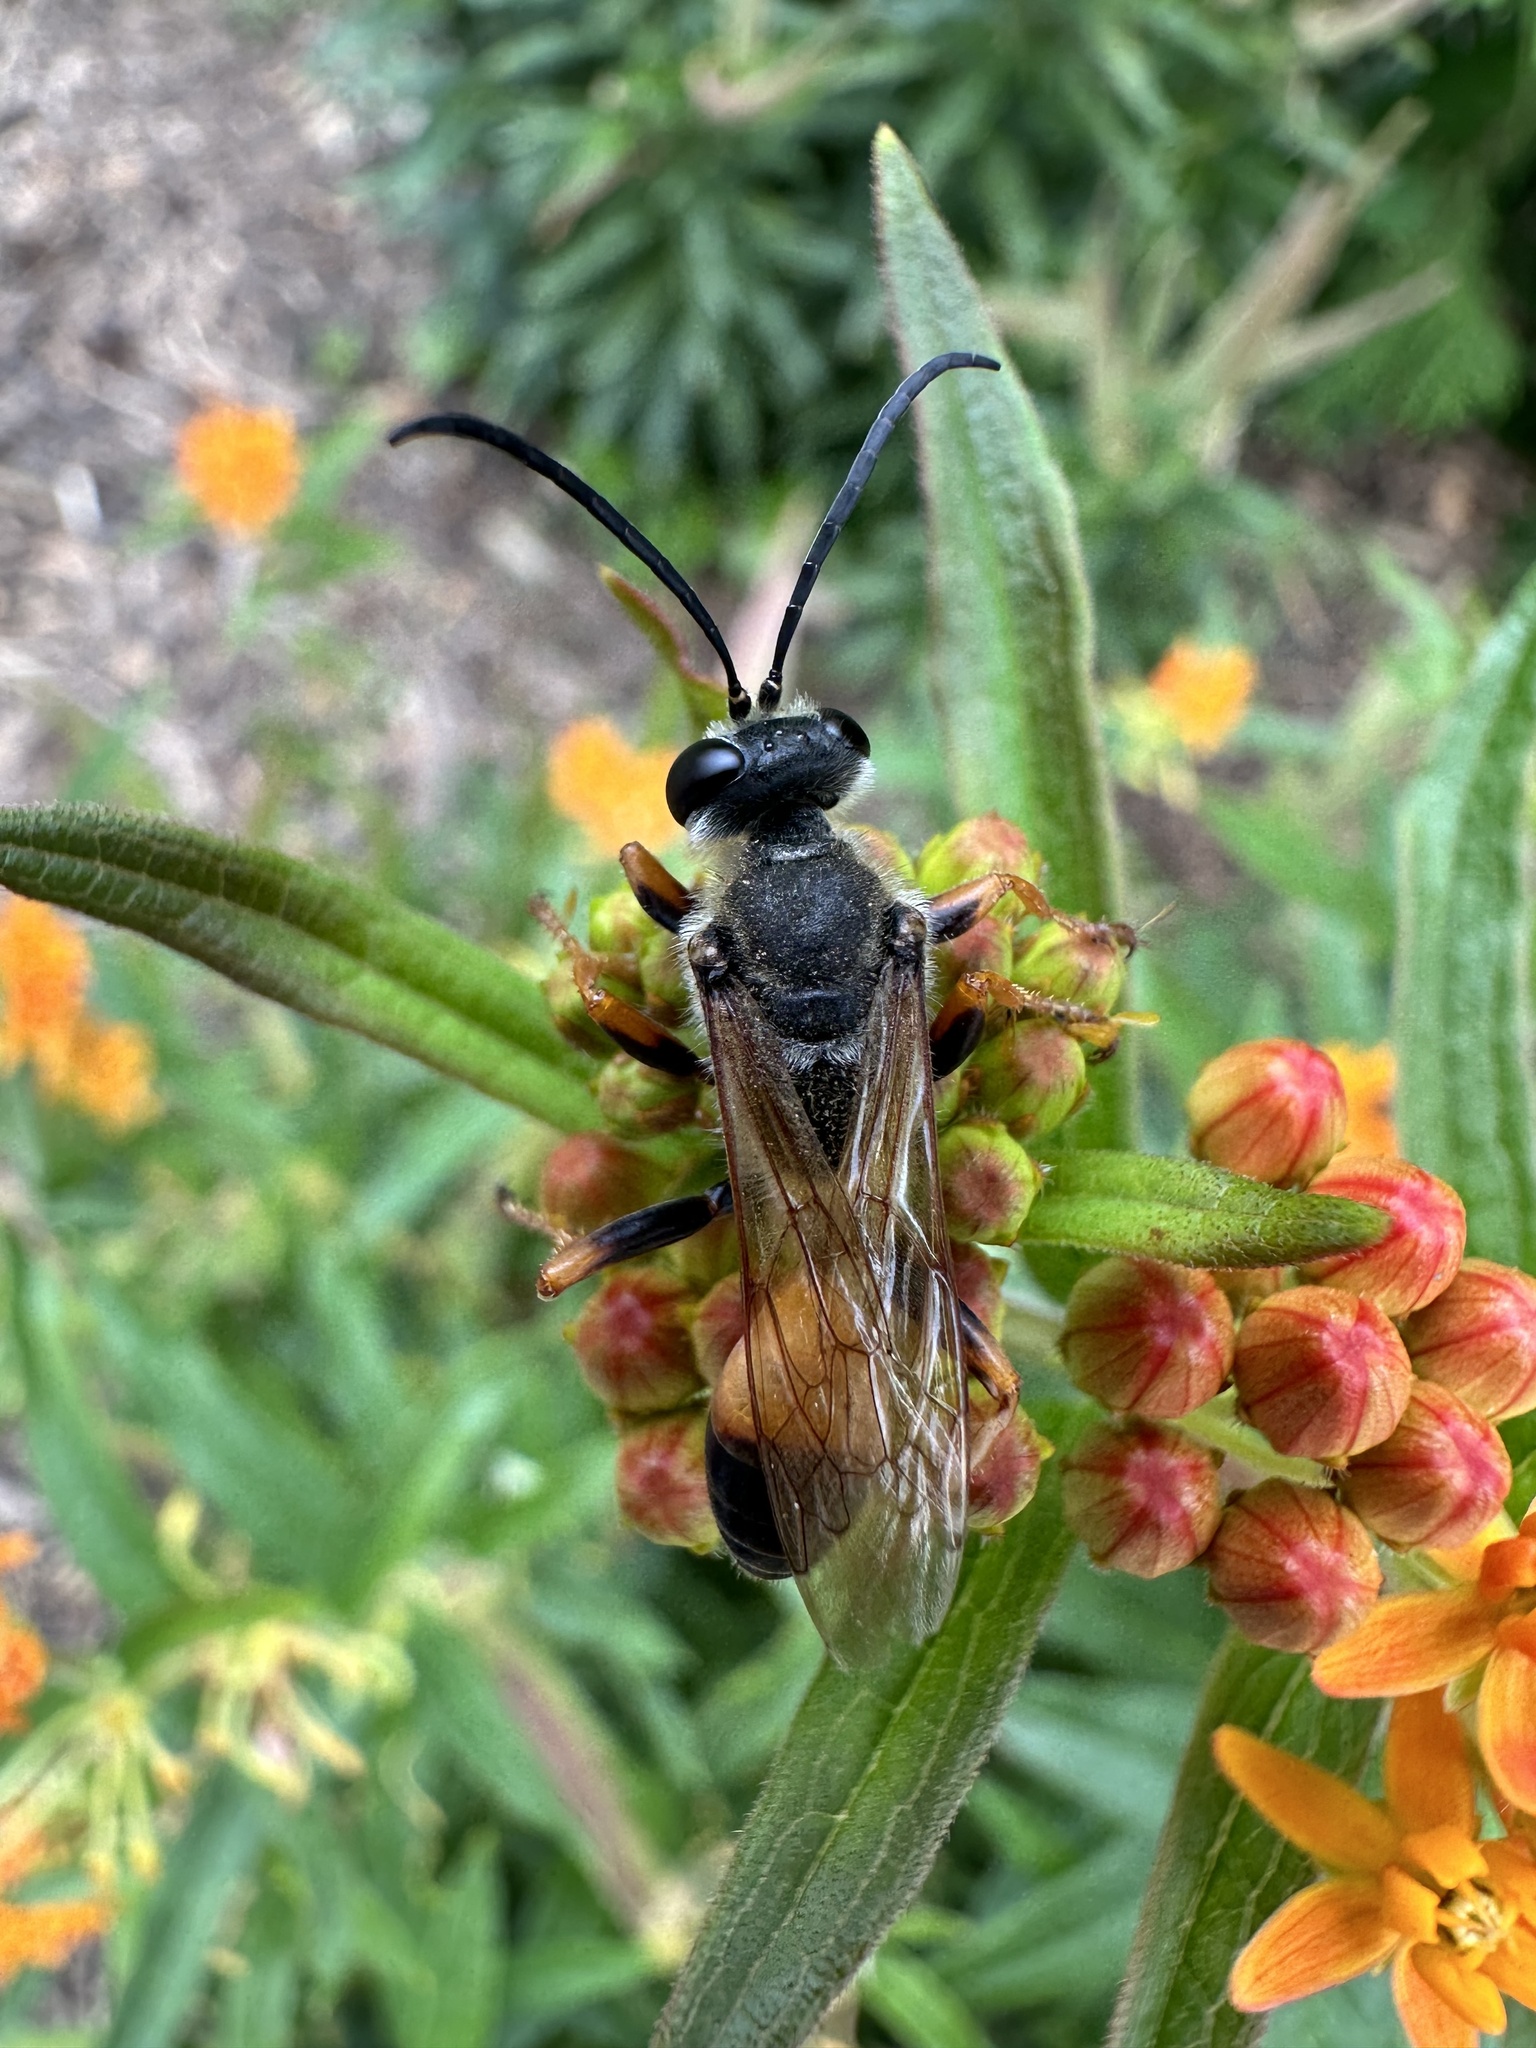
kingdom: Animalia
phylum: Arthropoda
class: Insecta
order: Hymenoptera
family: Sphecidae
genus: Sphex
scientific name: Sphex ichneumoneus
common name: Great golden digger wasp
